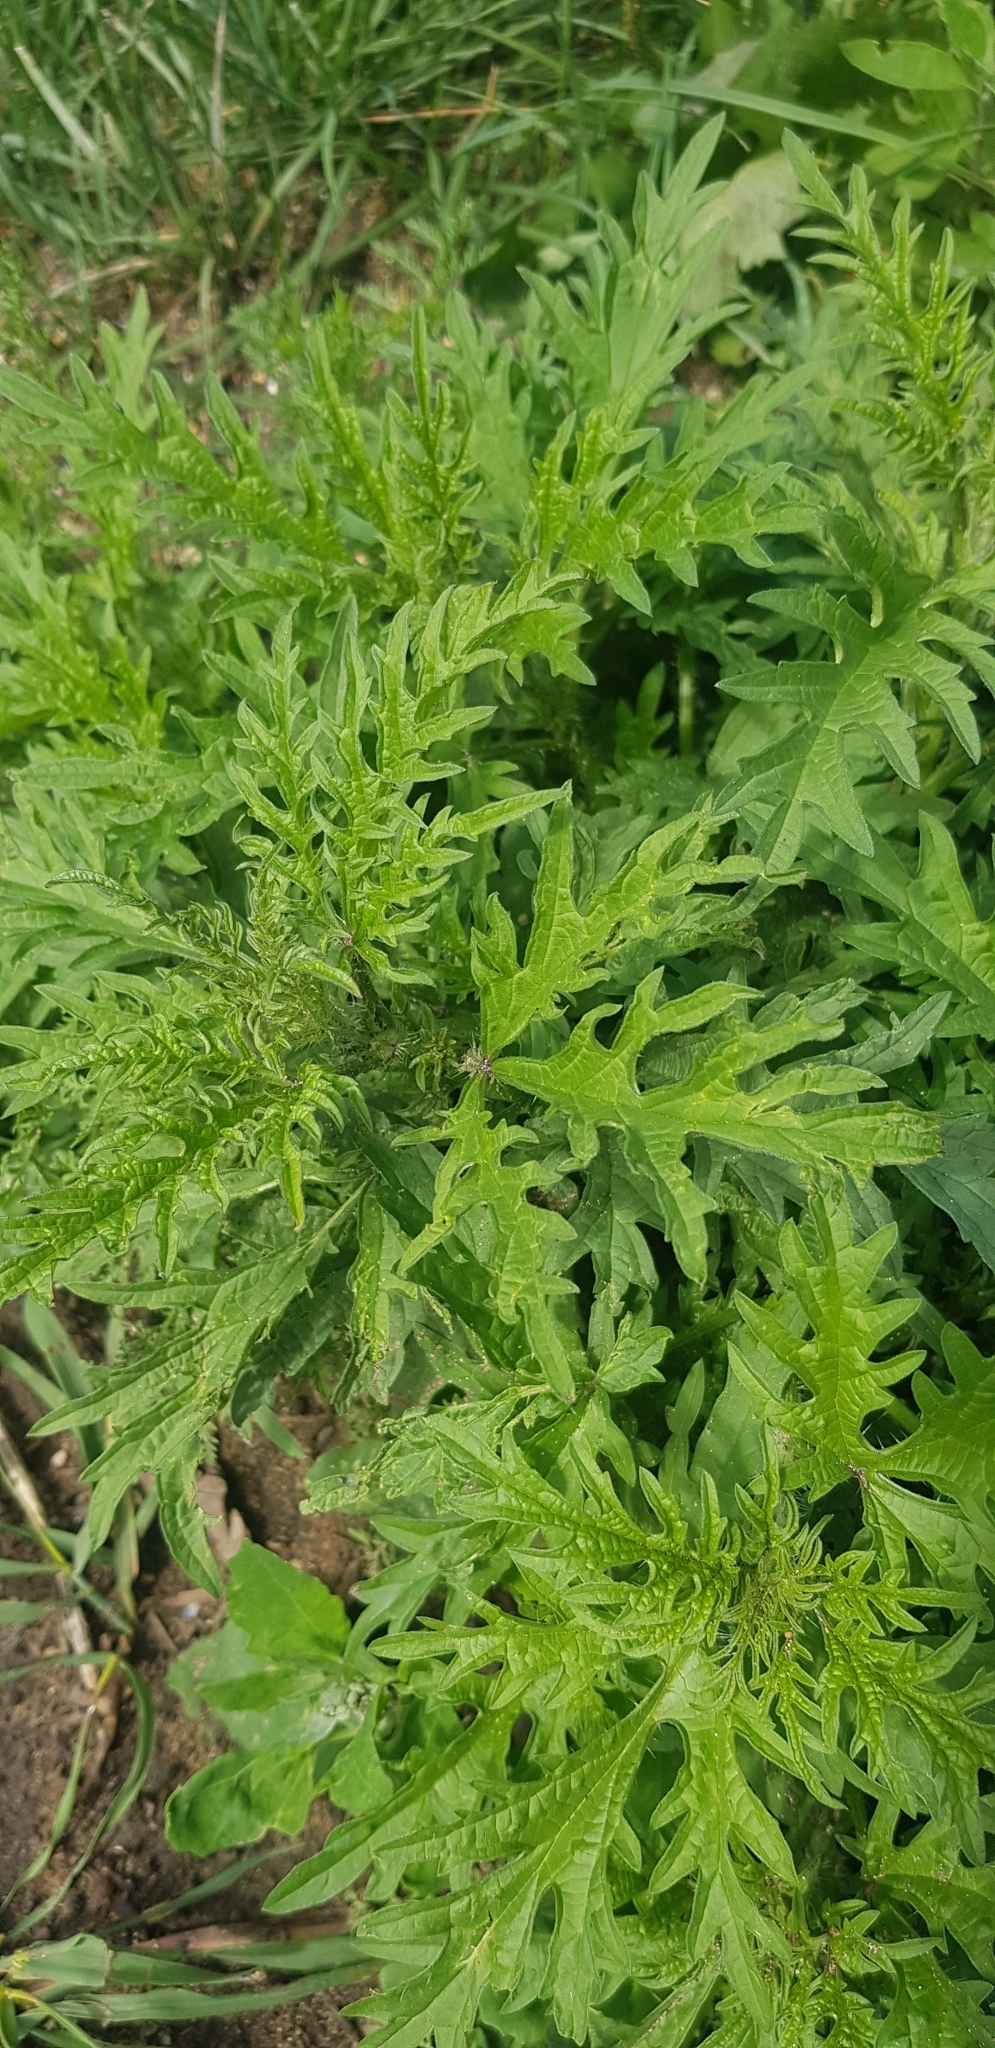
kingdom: Plantae
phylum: Tracheophyta
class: Magnoliopsida
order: Rosales
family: Urticaceae
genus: Urtica
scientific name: Urtica cannabina
